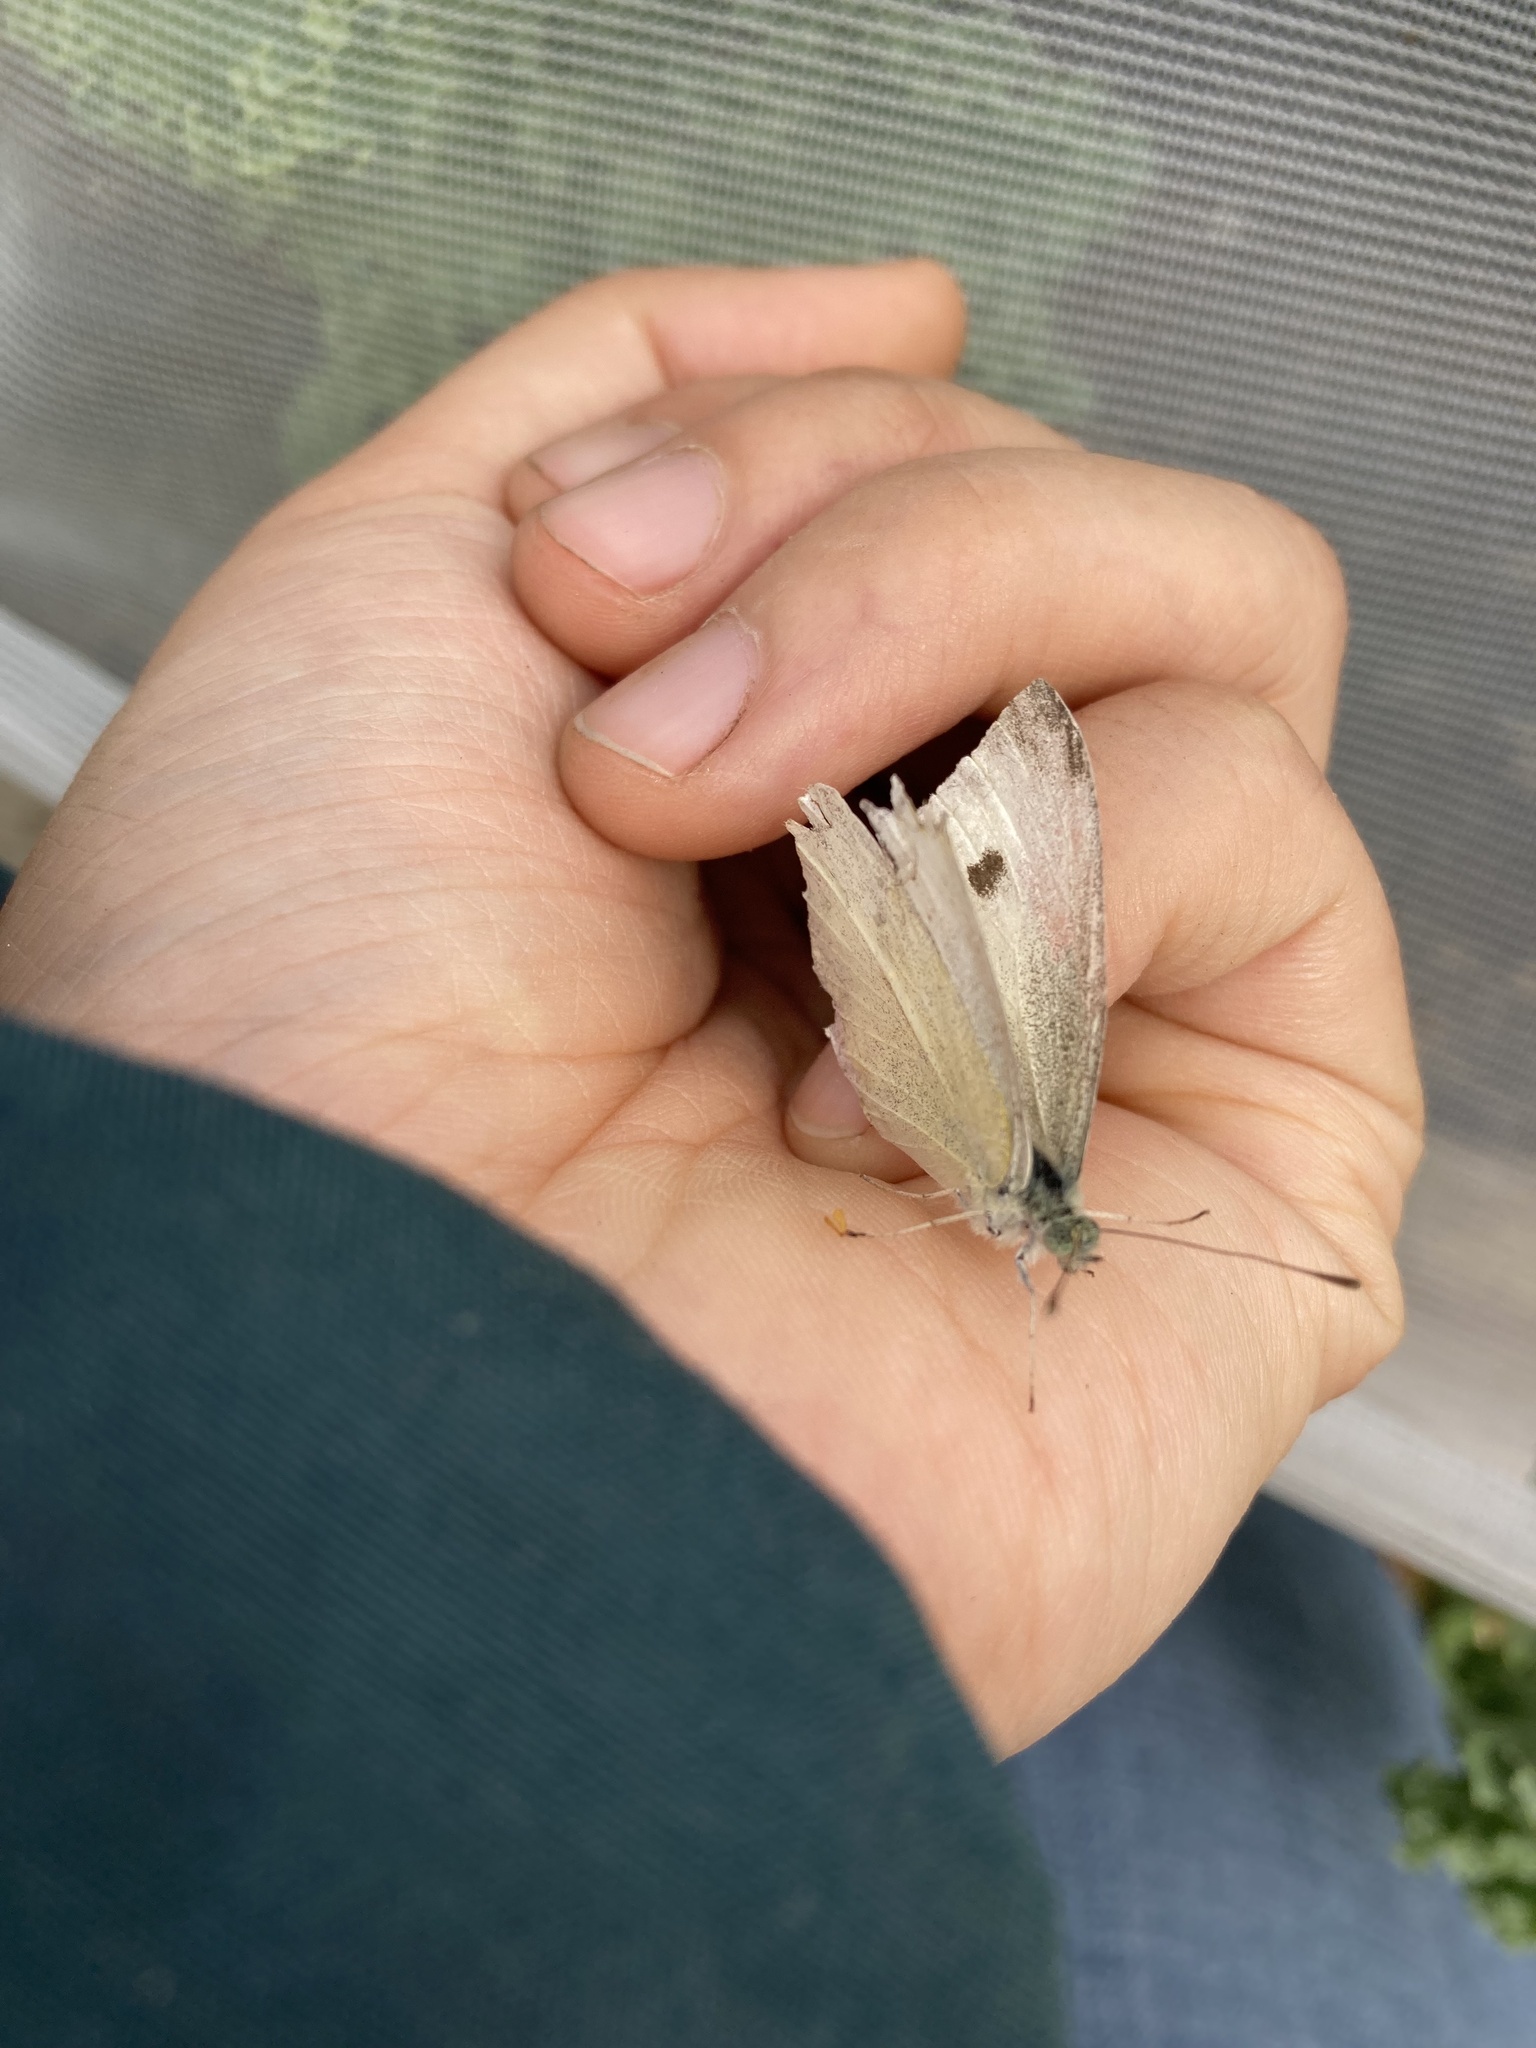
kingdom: Animalia
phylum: Arthropoda
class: Insecta
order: Lepidoptera
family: Pieridae
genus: Pieris
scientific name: Pieris rapae
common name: Small white
